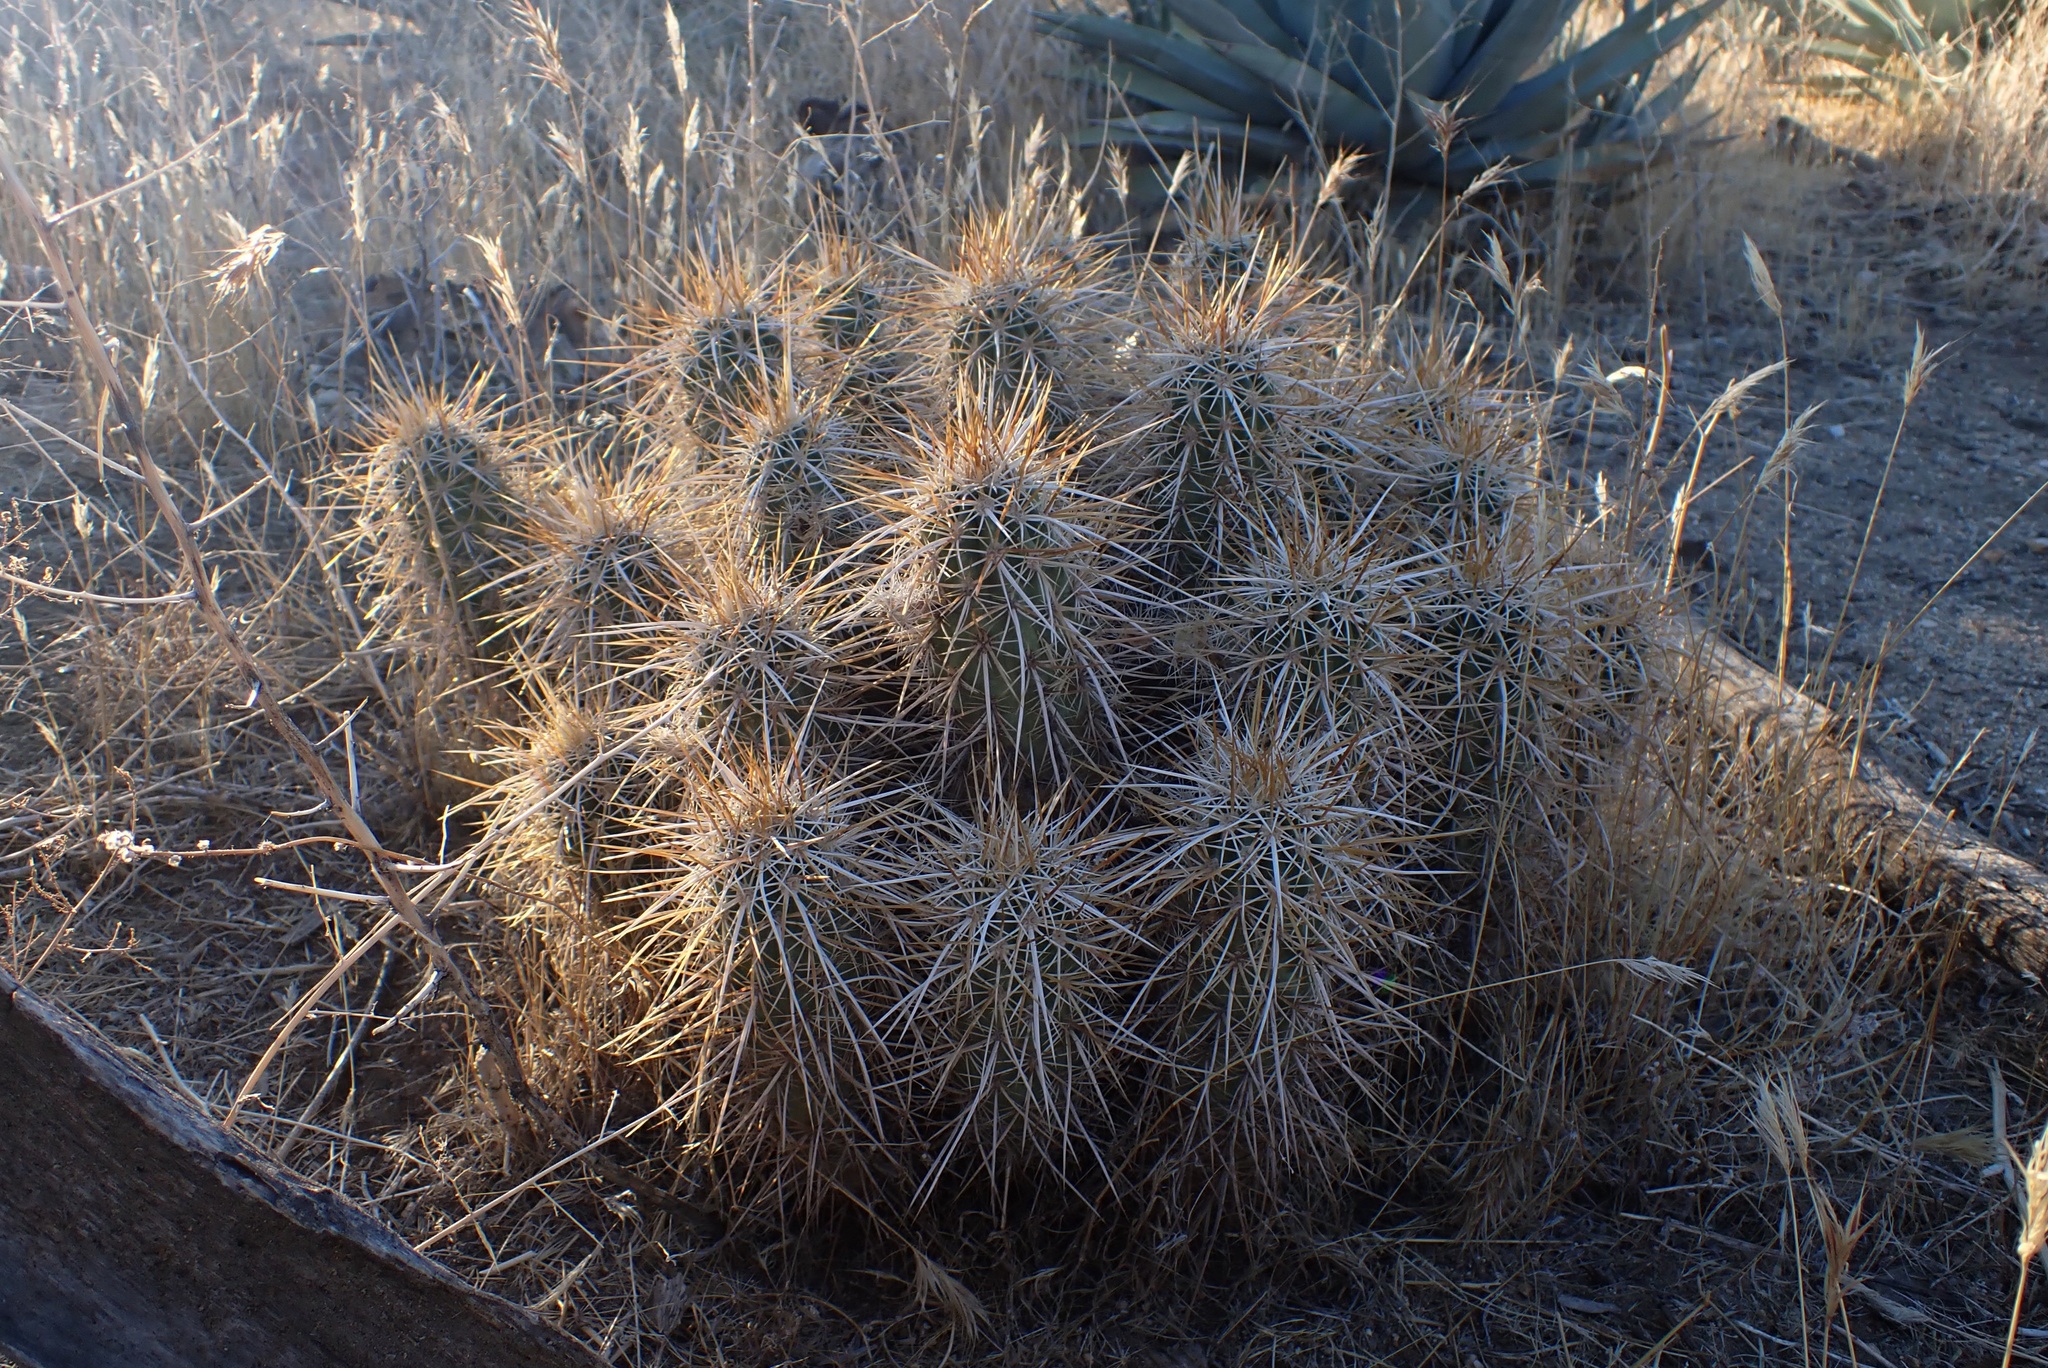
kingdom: Plantae
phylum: Tracheophyta
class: Magnoliopsida
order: Caryophyllales
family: Cactaceae
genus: Echinocereus
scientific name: Echinocereus engelmannii
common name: Engelmann's hedgehog cactus
